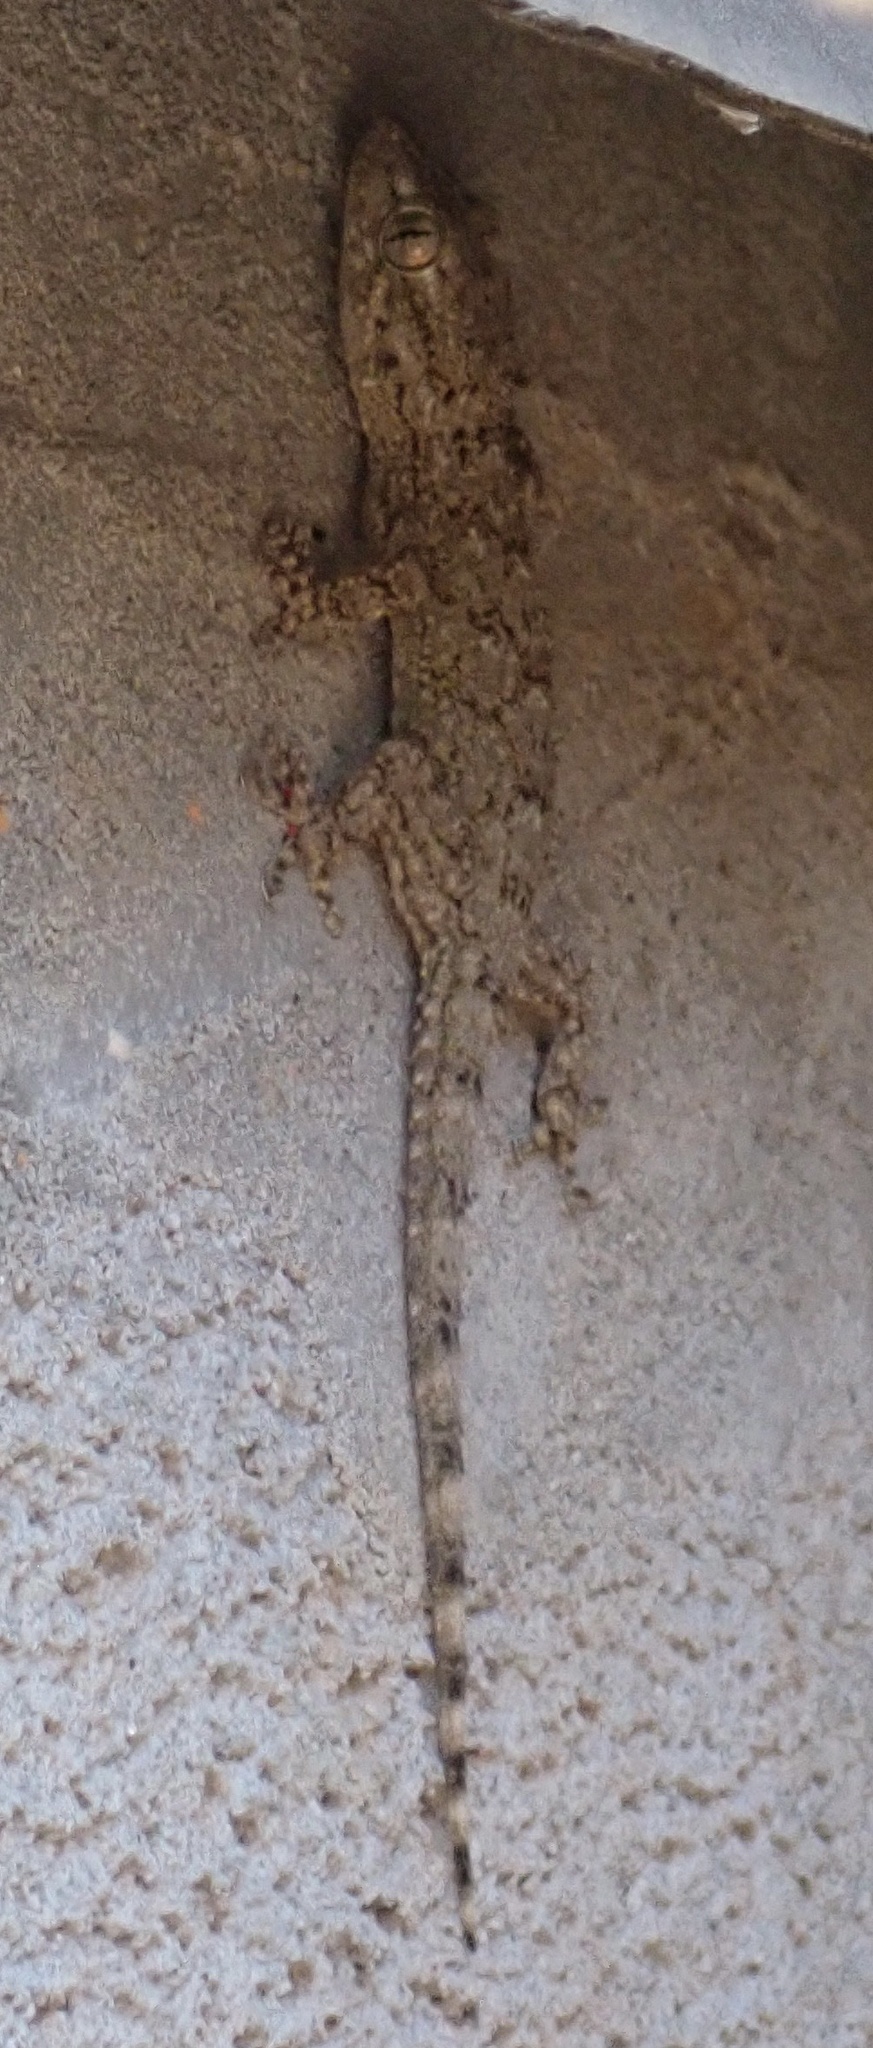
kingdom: Animalia
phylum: Chordata
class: Squamata
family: Phyllodactylidae
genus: Tarentola
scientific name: Tarentola mauritanica
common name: Moorish gecko
